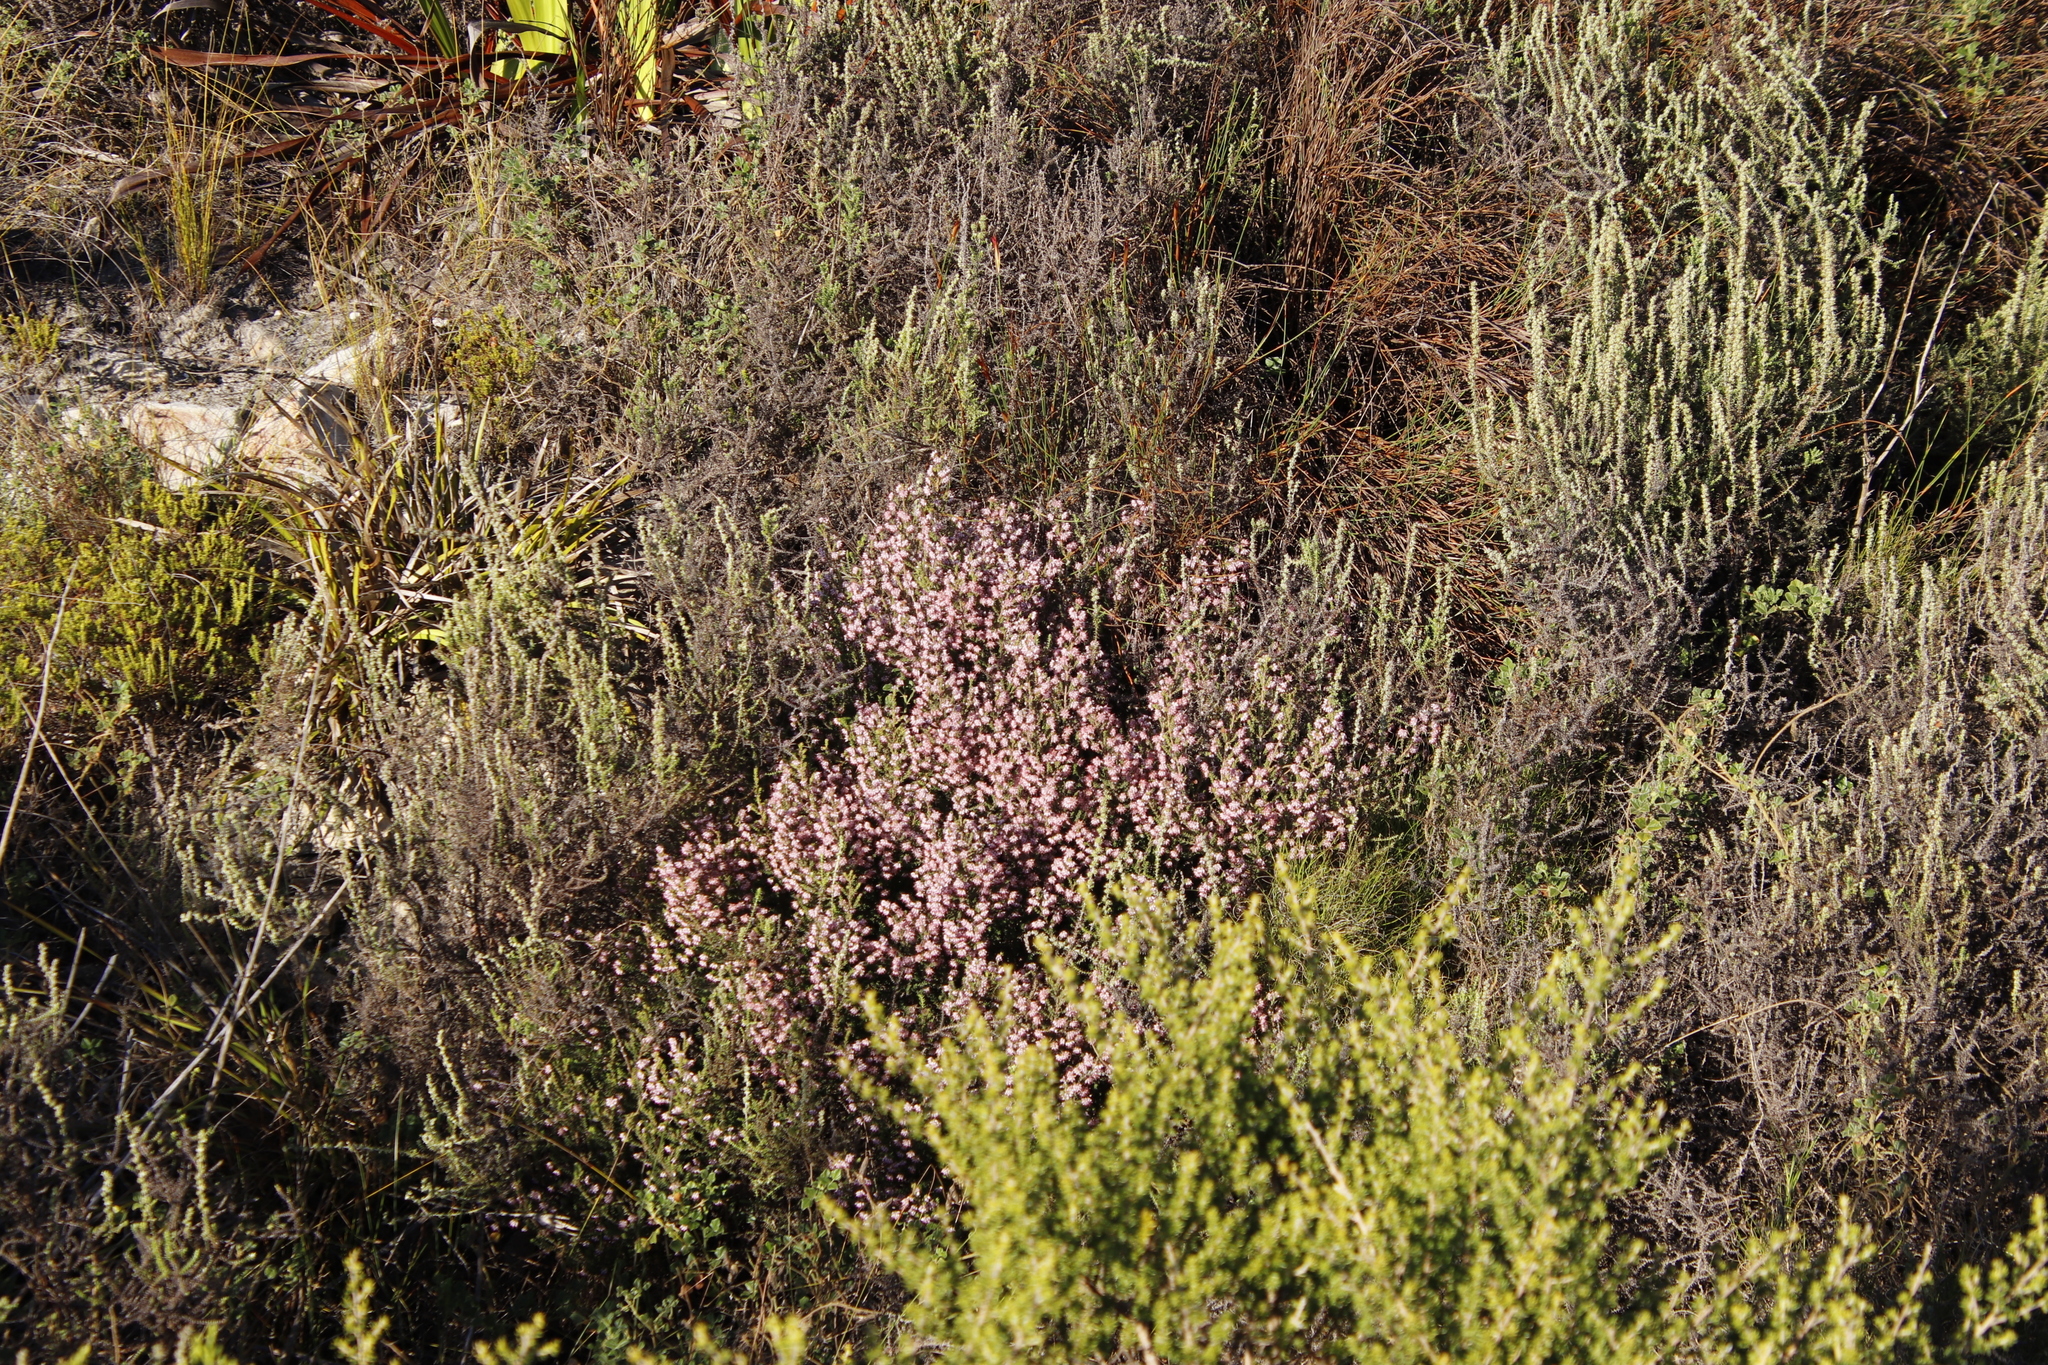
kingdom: Plantae
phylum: Tracheophyta
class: Magnoliopsida
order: Ericales
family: Ericaceae
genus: Erica
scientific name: Erica ericoides
